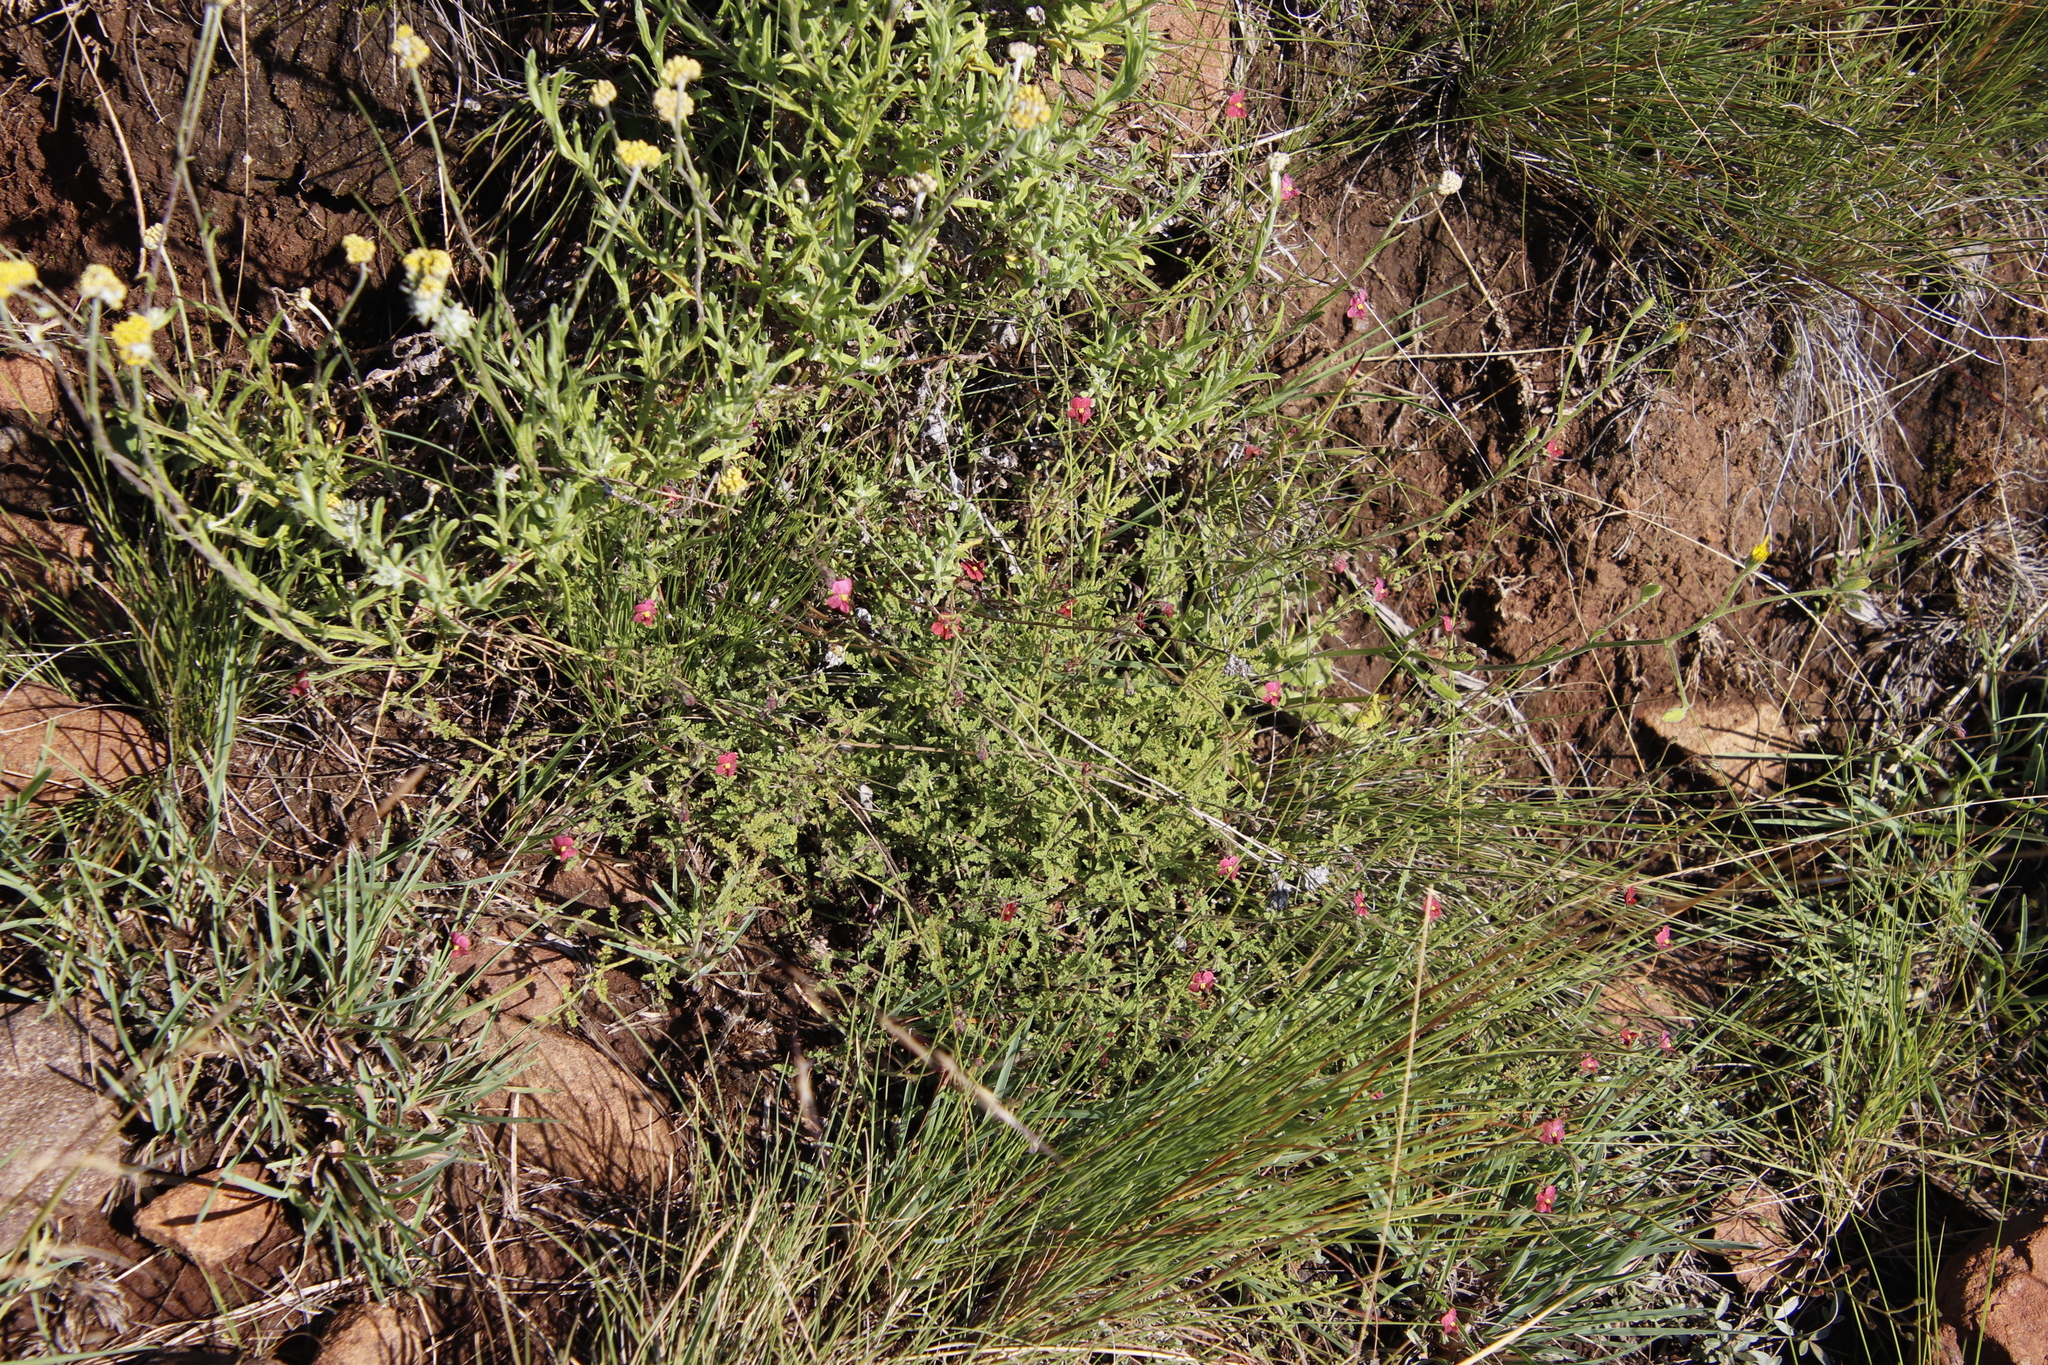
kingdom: Plantae
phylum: Tracheophyta
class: Magnoliopsida
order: Lamiales
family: Scrophulariaceae
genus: Jamesbrittenia
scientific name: Jamesbrittenia breviflora
